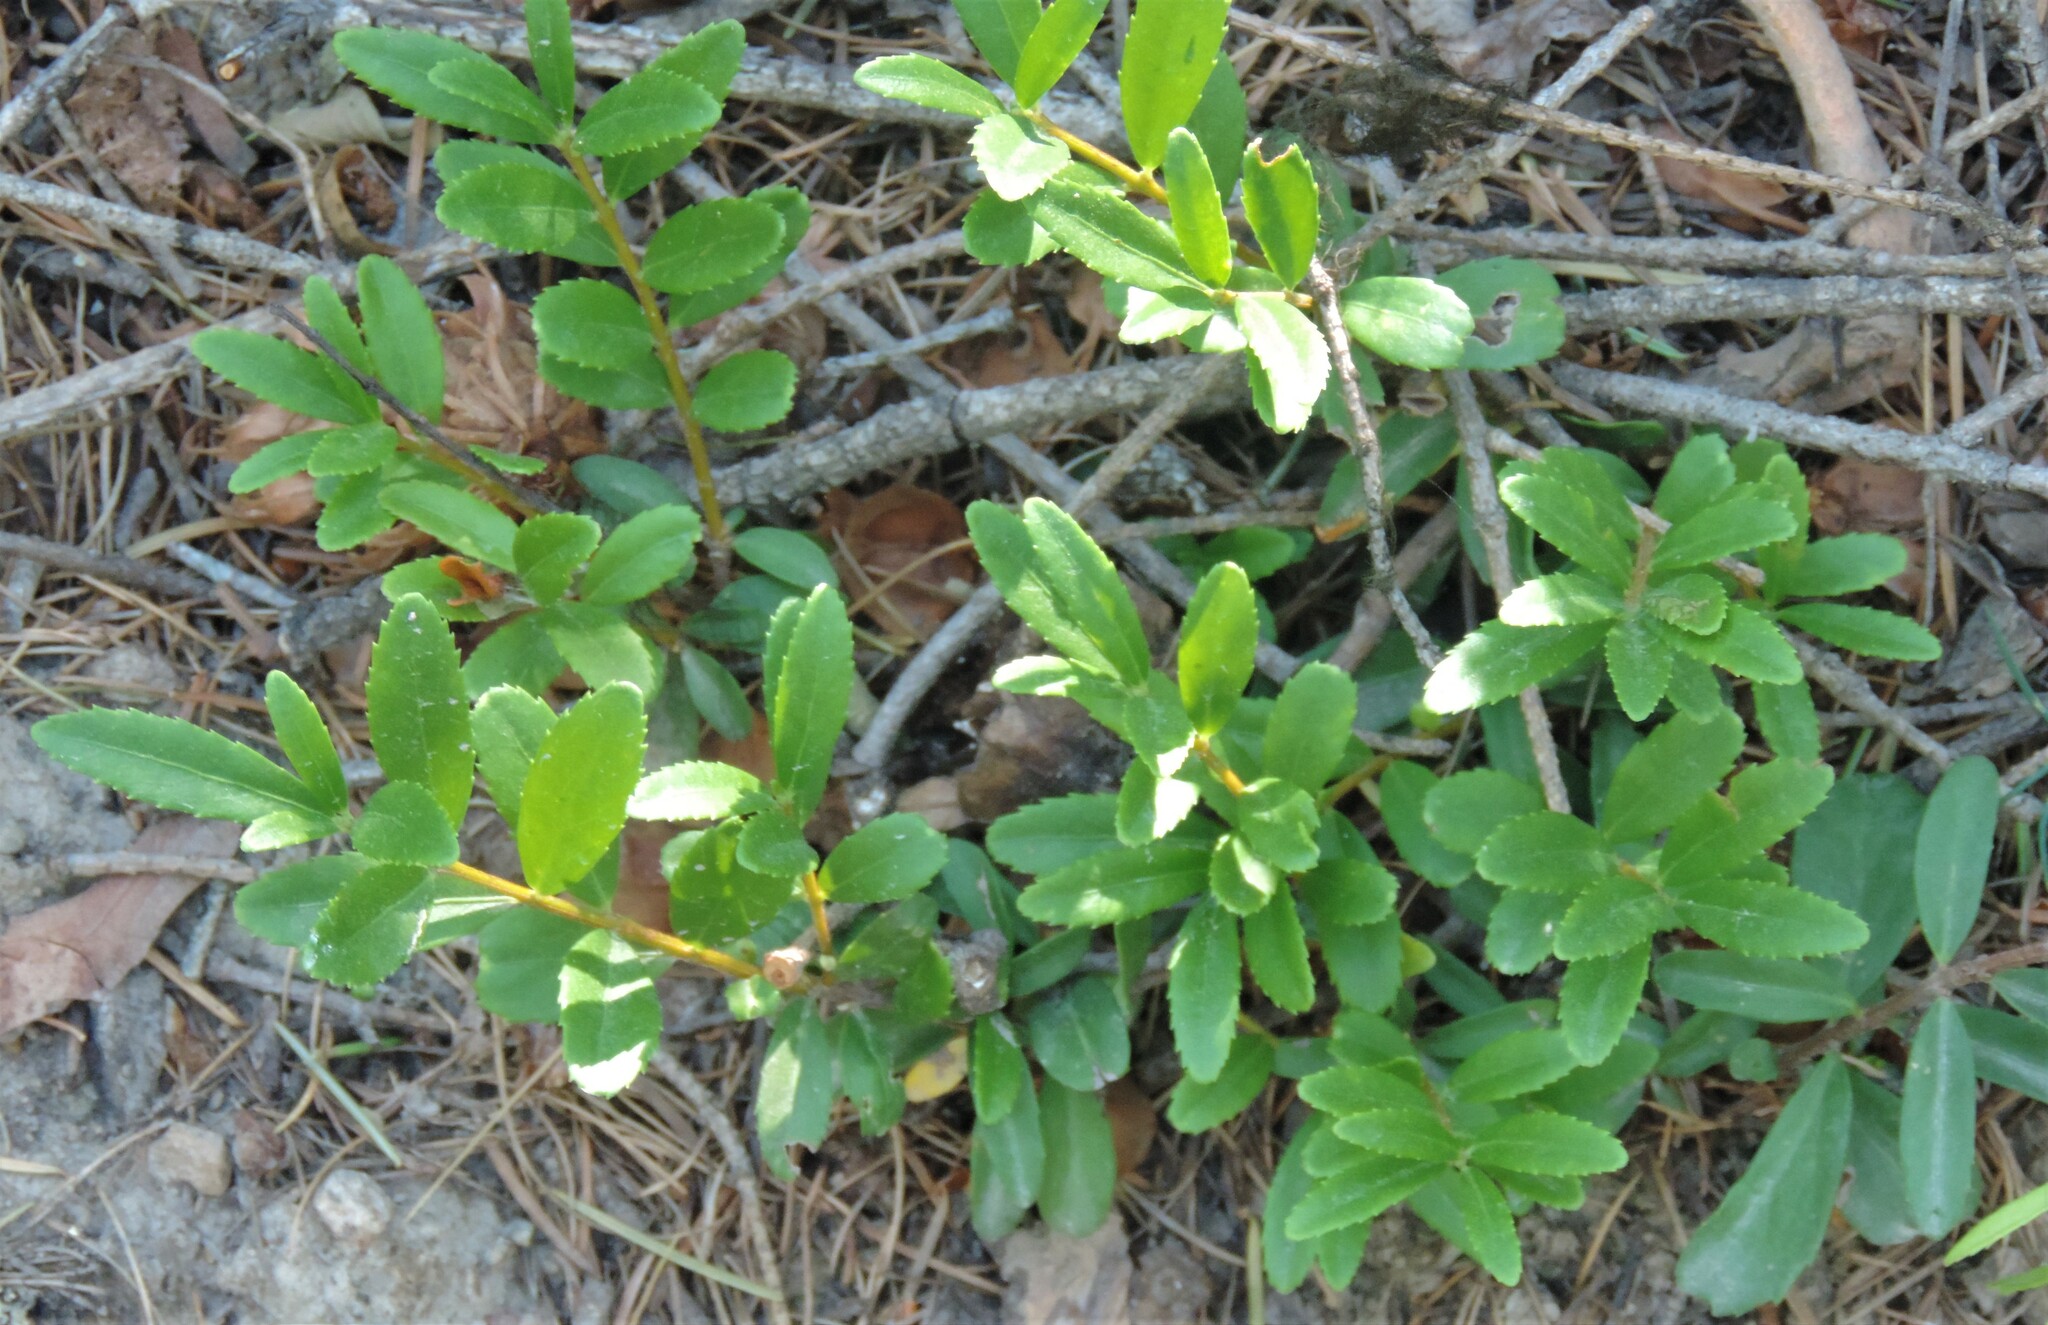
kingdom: Plantae
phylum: Tracheophyta
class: Magnoliopsida
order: Celastrales
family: Celastraceae
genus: Paxistima
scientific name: Paxistima myrsinites
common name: Mountain-lover
